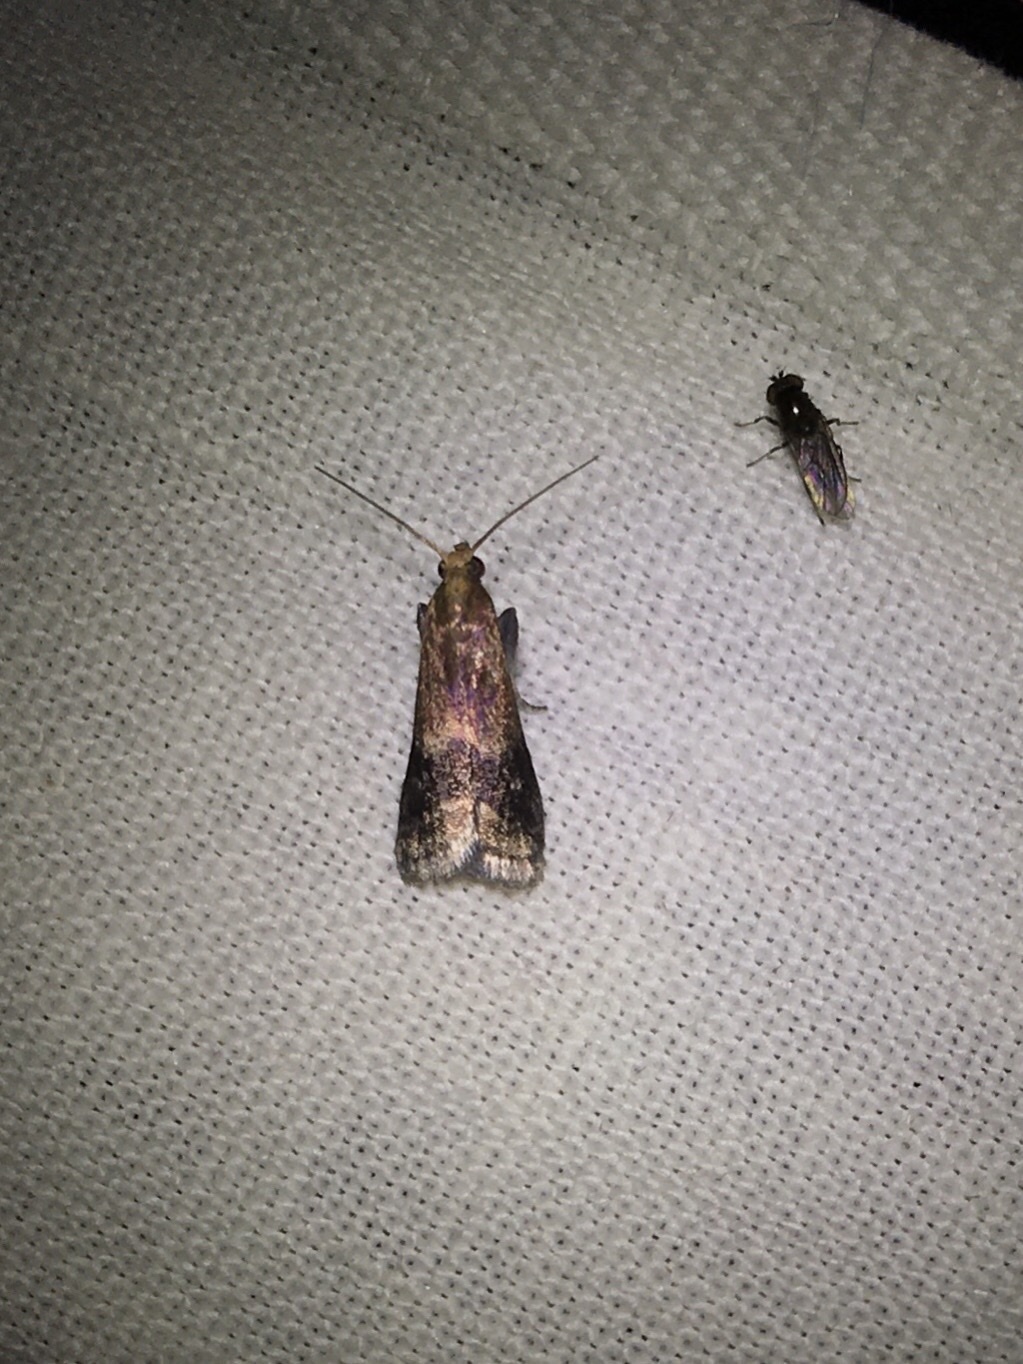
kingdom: Animalia
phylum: Arthropoda
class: Insecta
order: Lepidoptera
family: Pyralidae
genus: Eulogia
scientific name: Eulogia ochrifrontella
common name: Broad-banded eulogia moth
